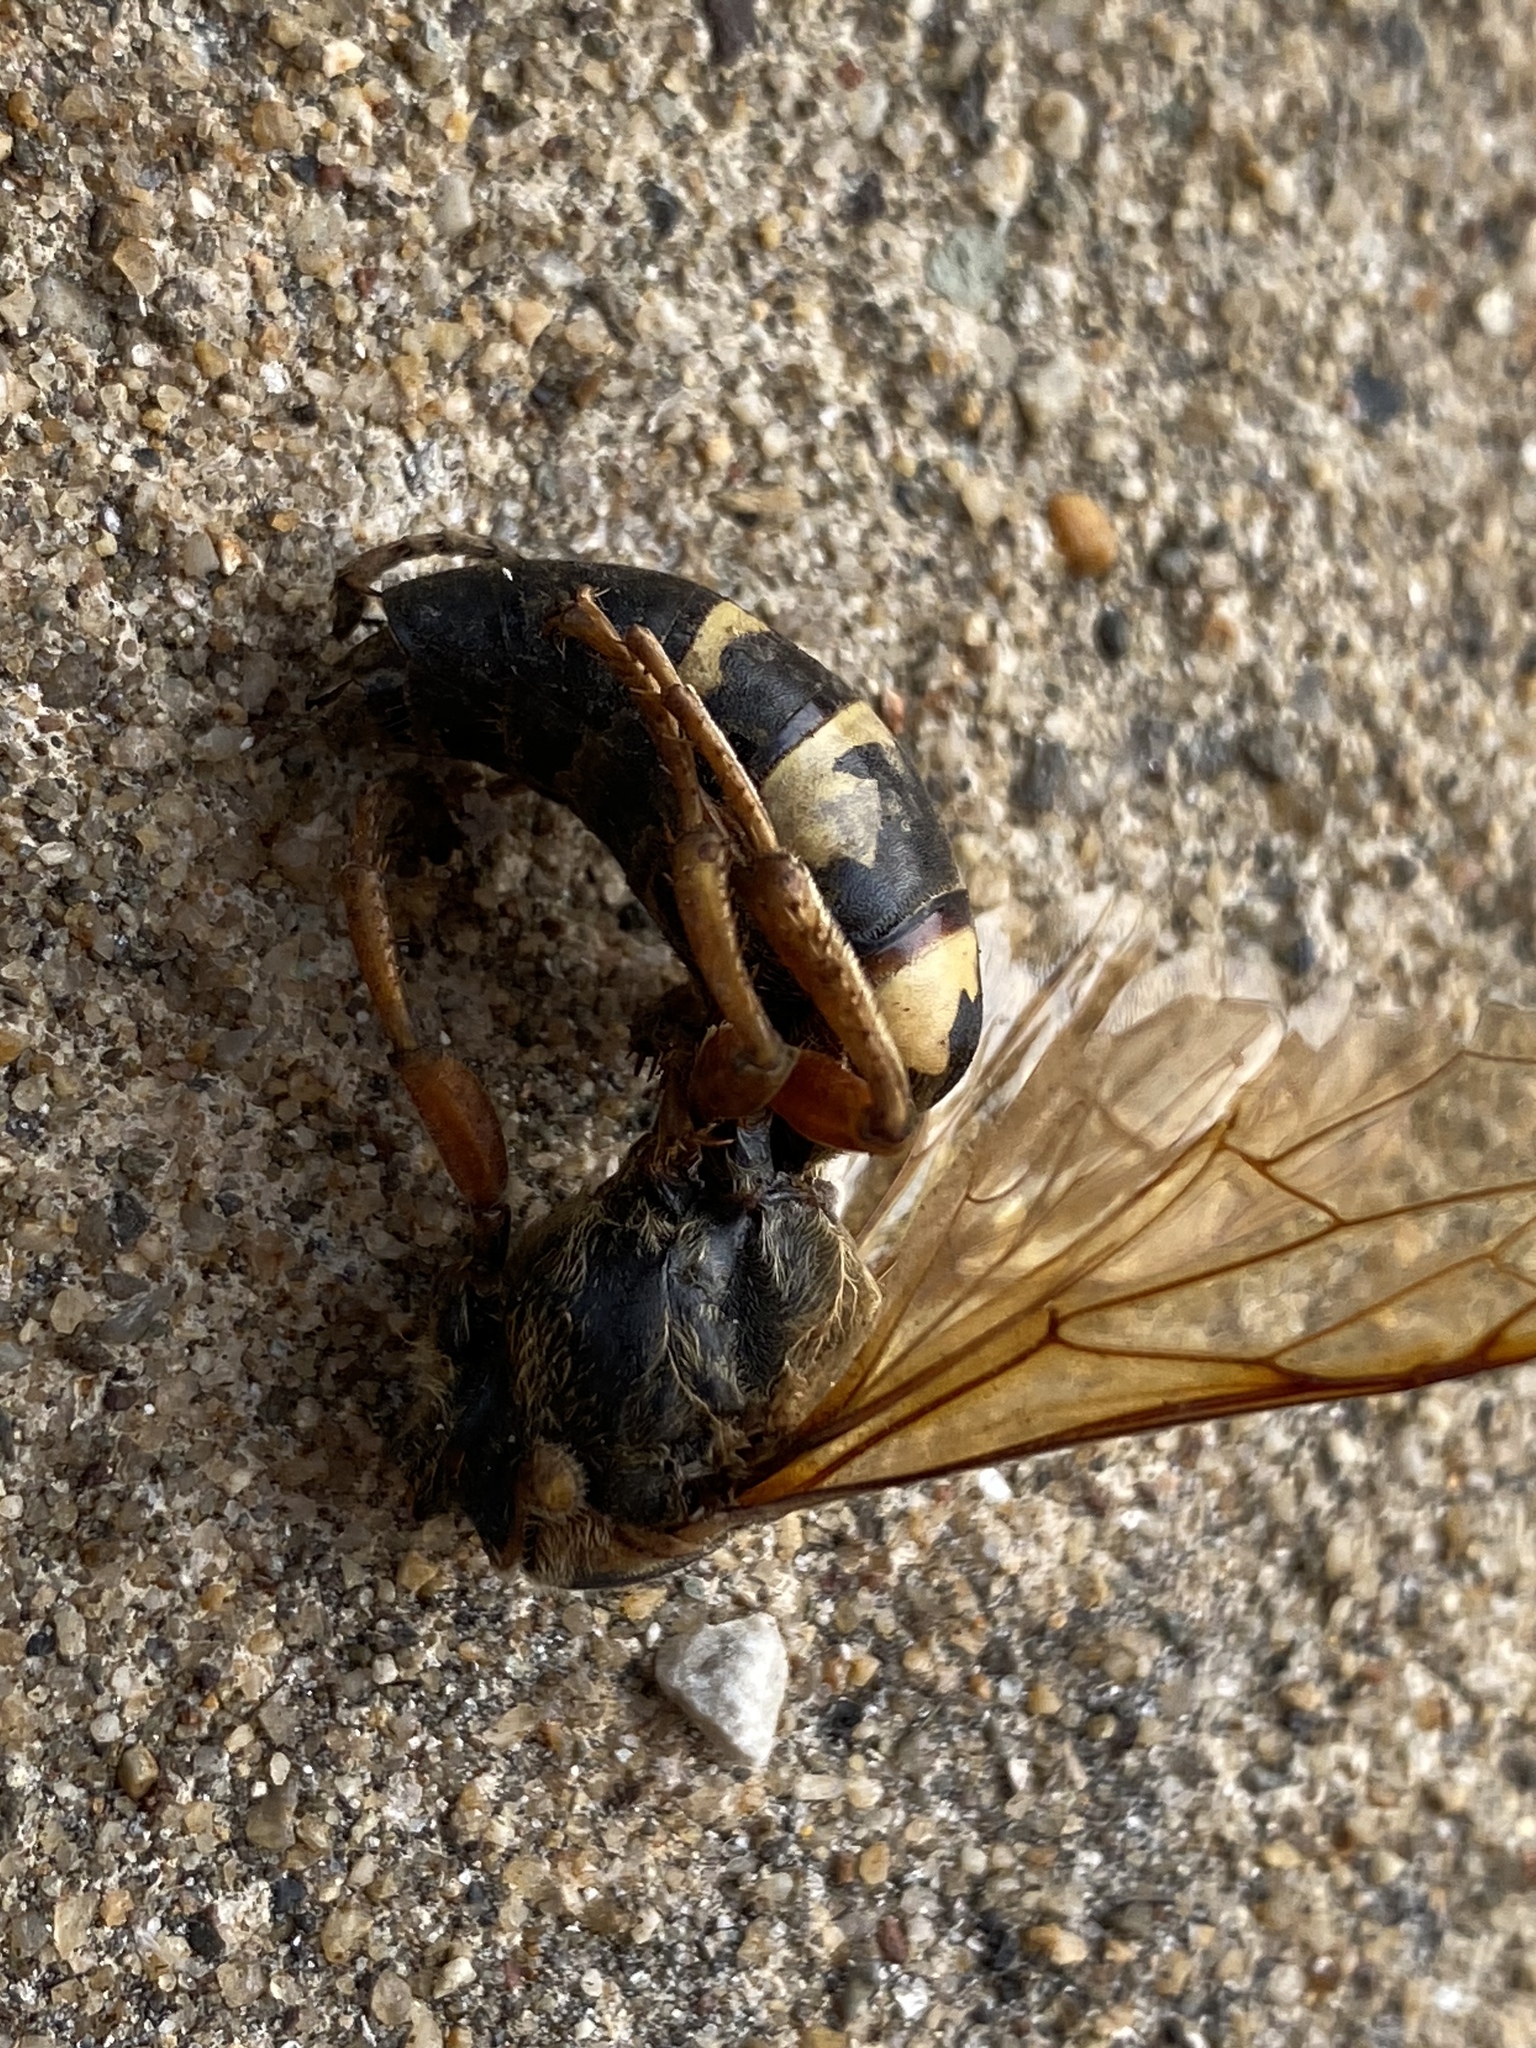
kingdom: Animalia
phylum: Arthropoda
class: Insecta
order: Hymenoptera
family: Crabronidae
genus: Sphecius
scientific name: Sphecius speciosus
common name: Cicada killer
